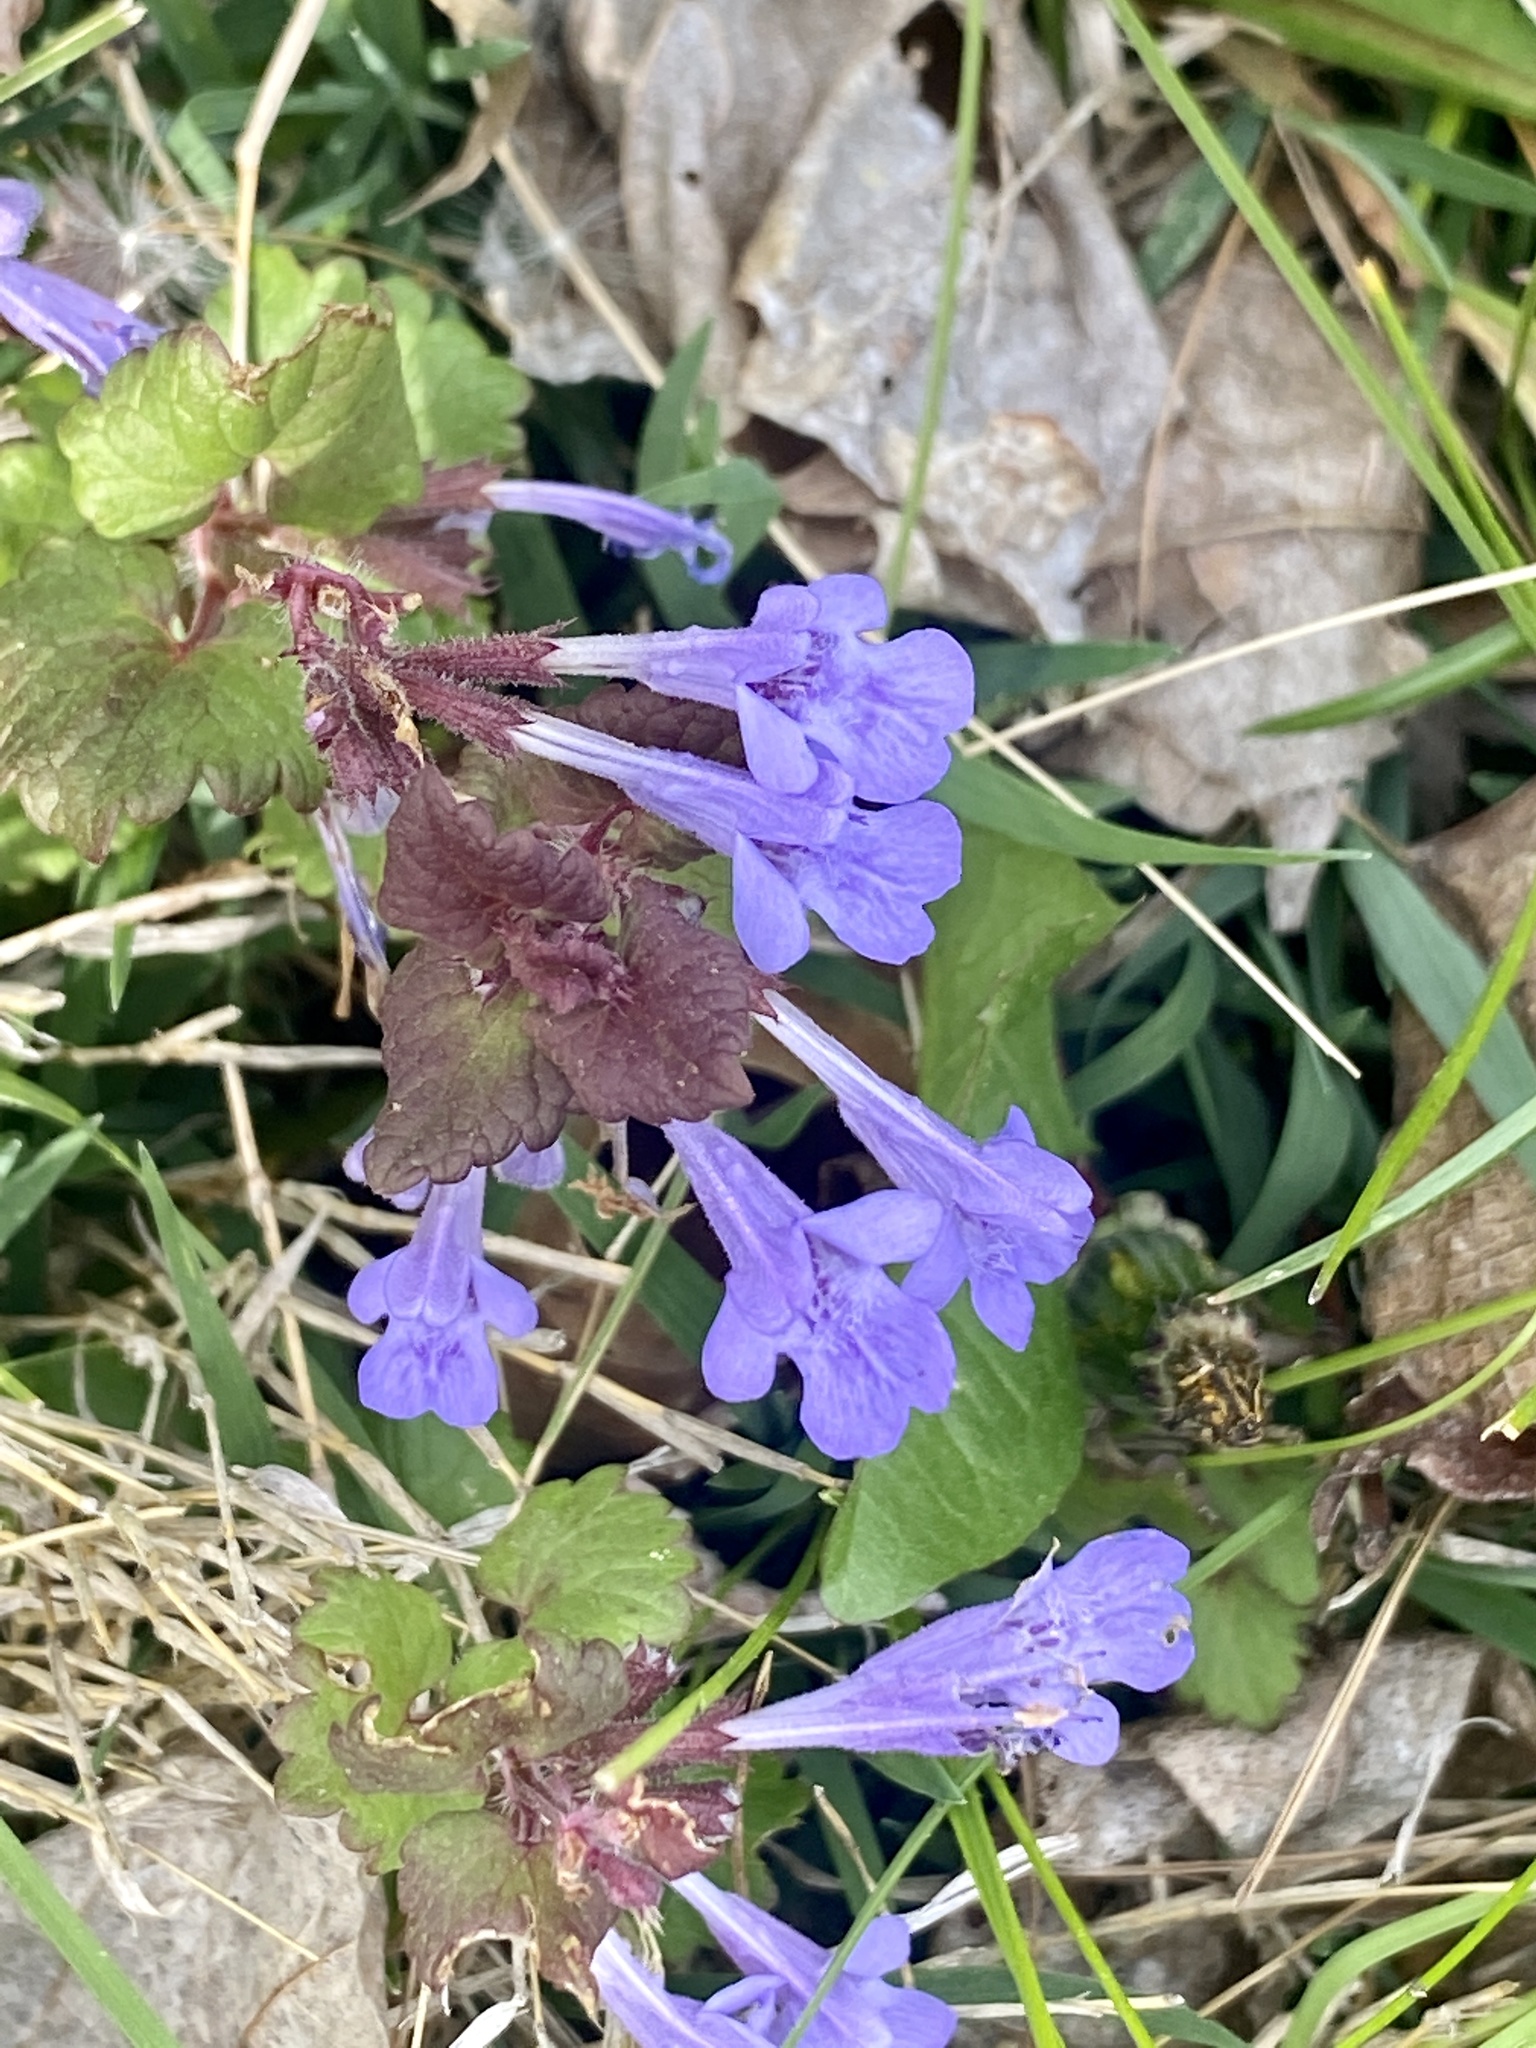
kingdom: Plantae
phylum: Tracheophyta
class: Magnoliopsida
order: Lamiales
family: Lamiaceae
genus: Glechoma
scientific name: Glechoma hederacea
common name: Ground ivy
